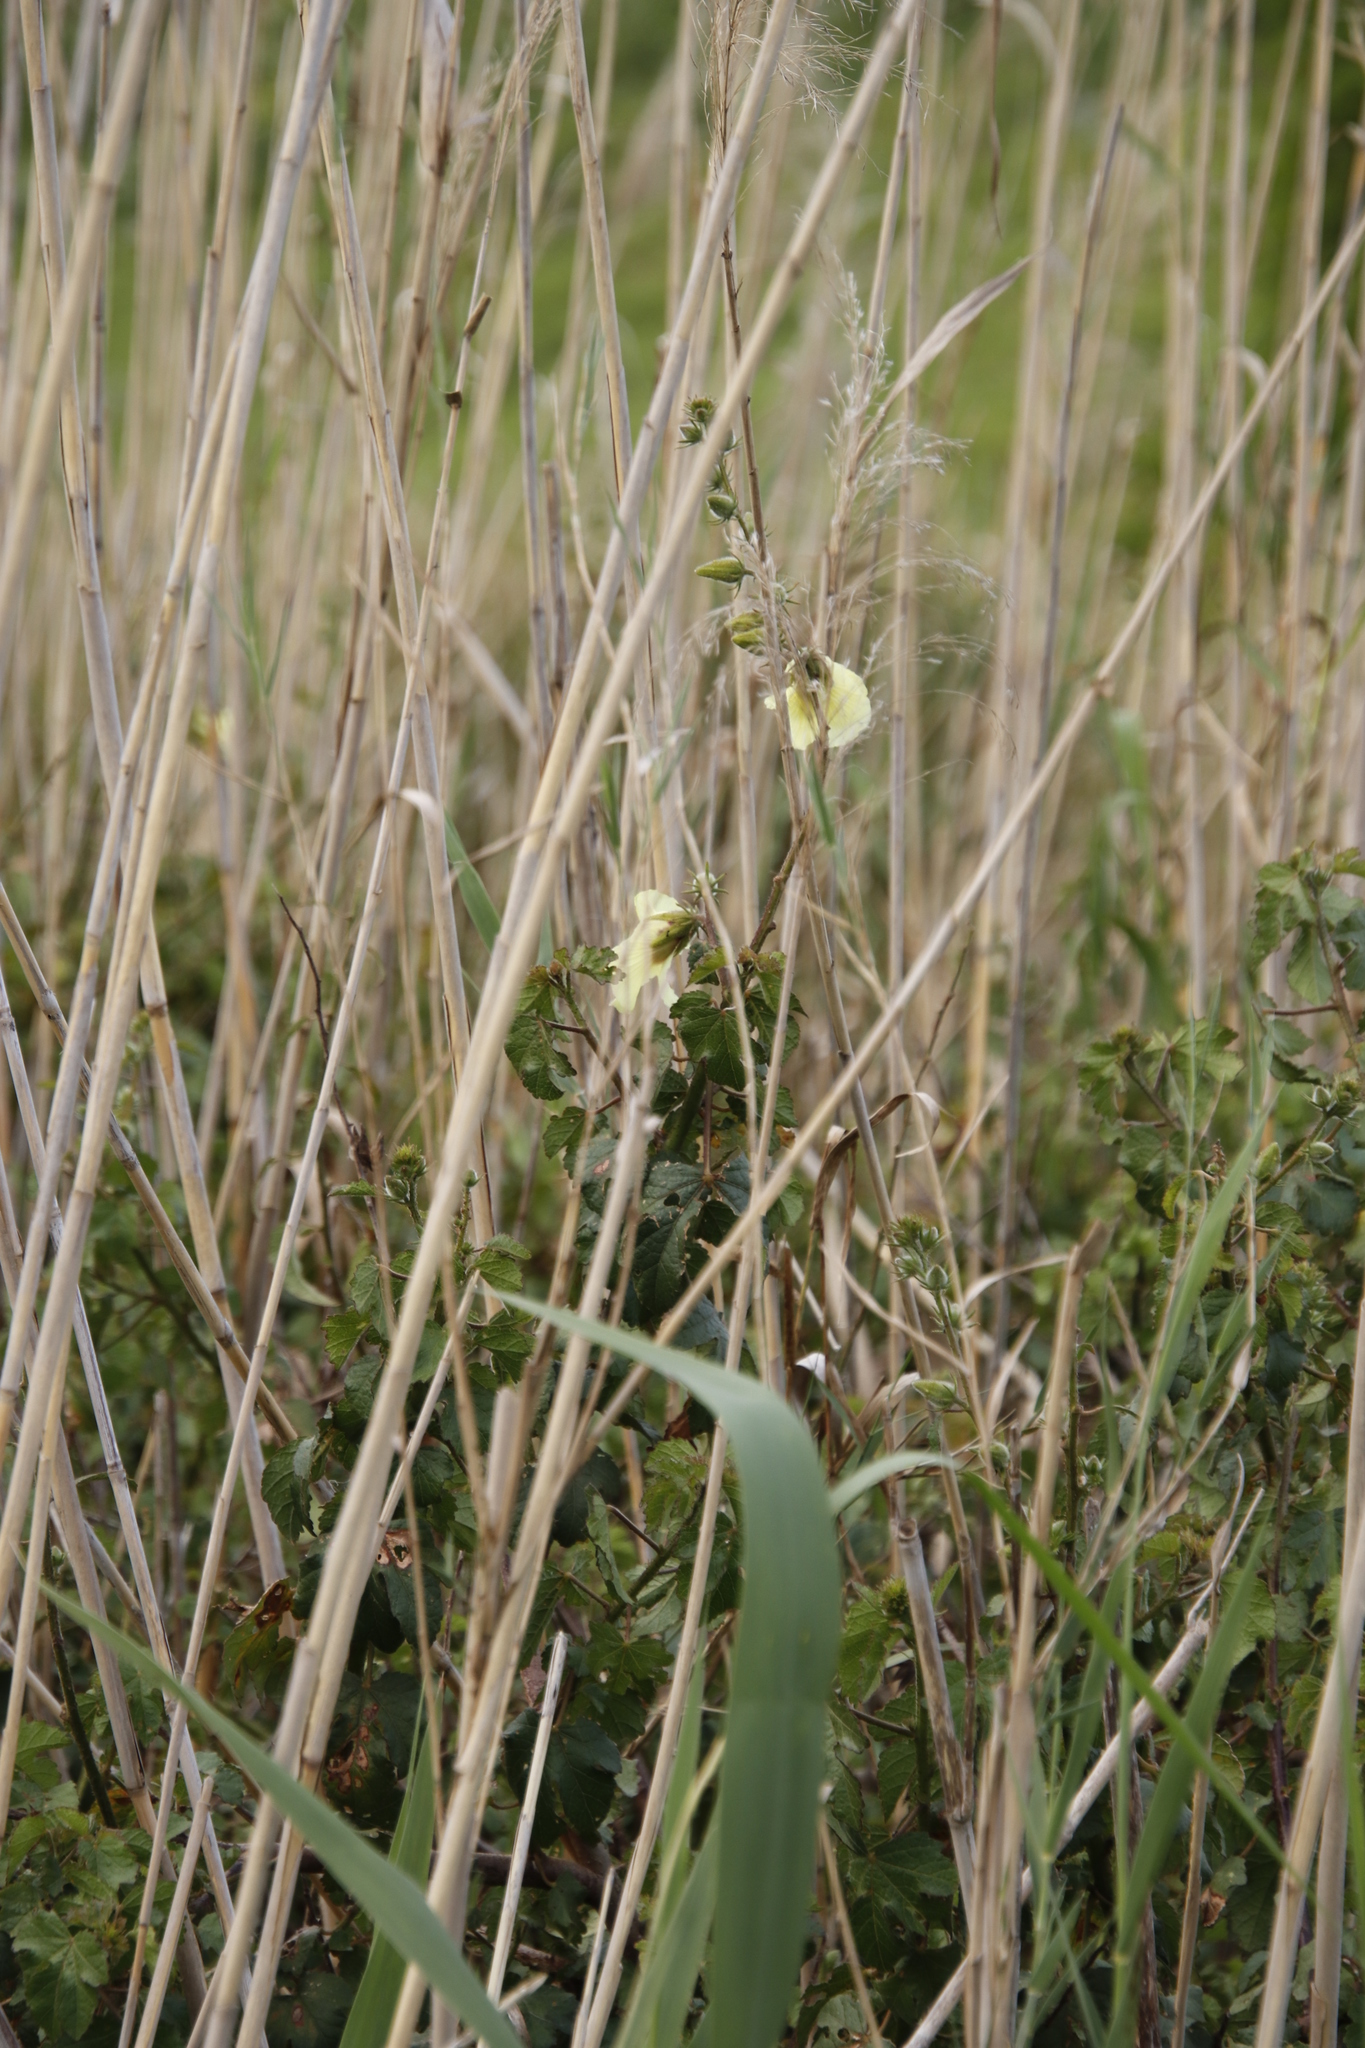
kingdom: Plantae
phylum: Tracheophyta
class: Magnoliopsida
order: Malvales
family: Malvaceae
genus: Hibiscus
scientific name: Hibiscus diversifolius
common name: Cape hibiscus
